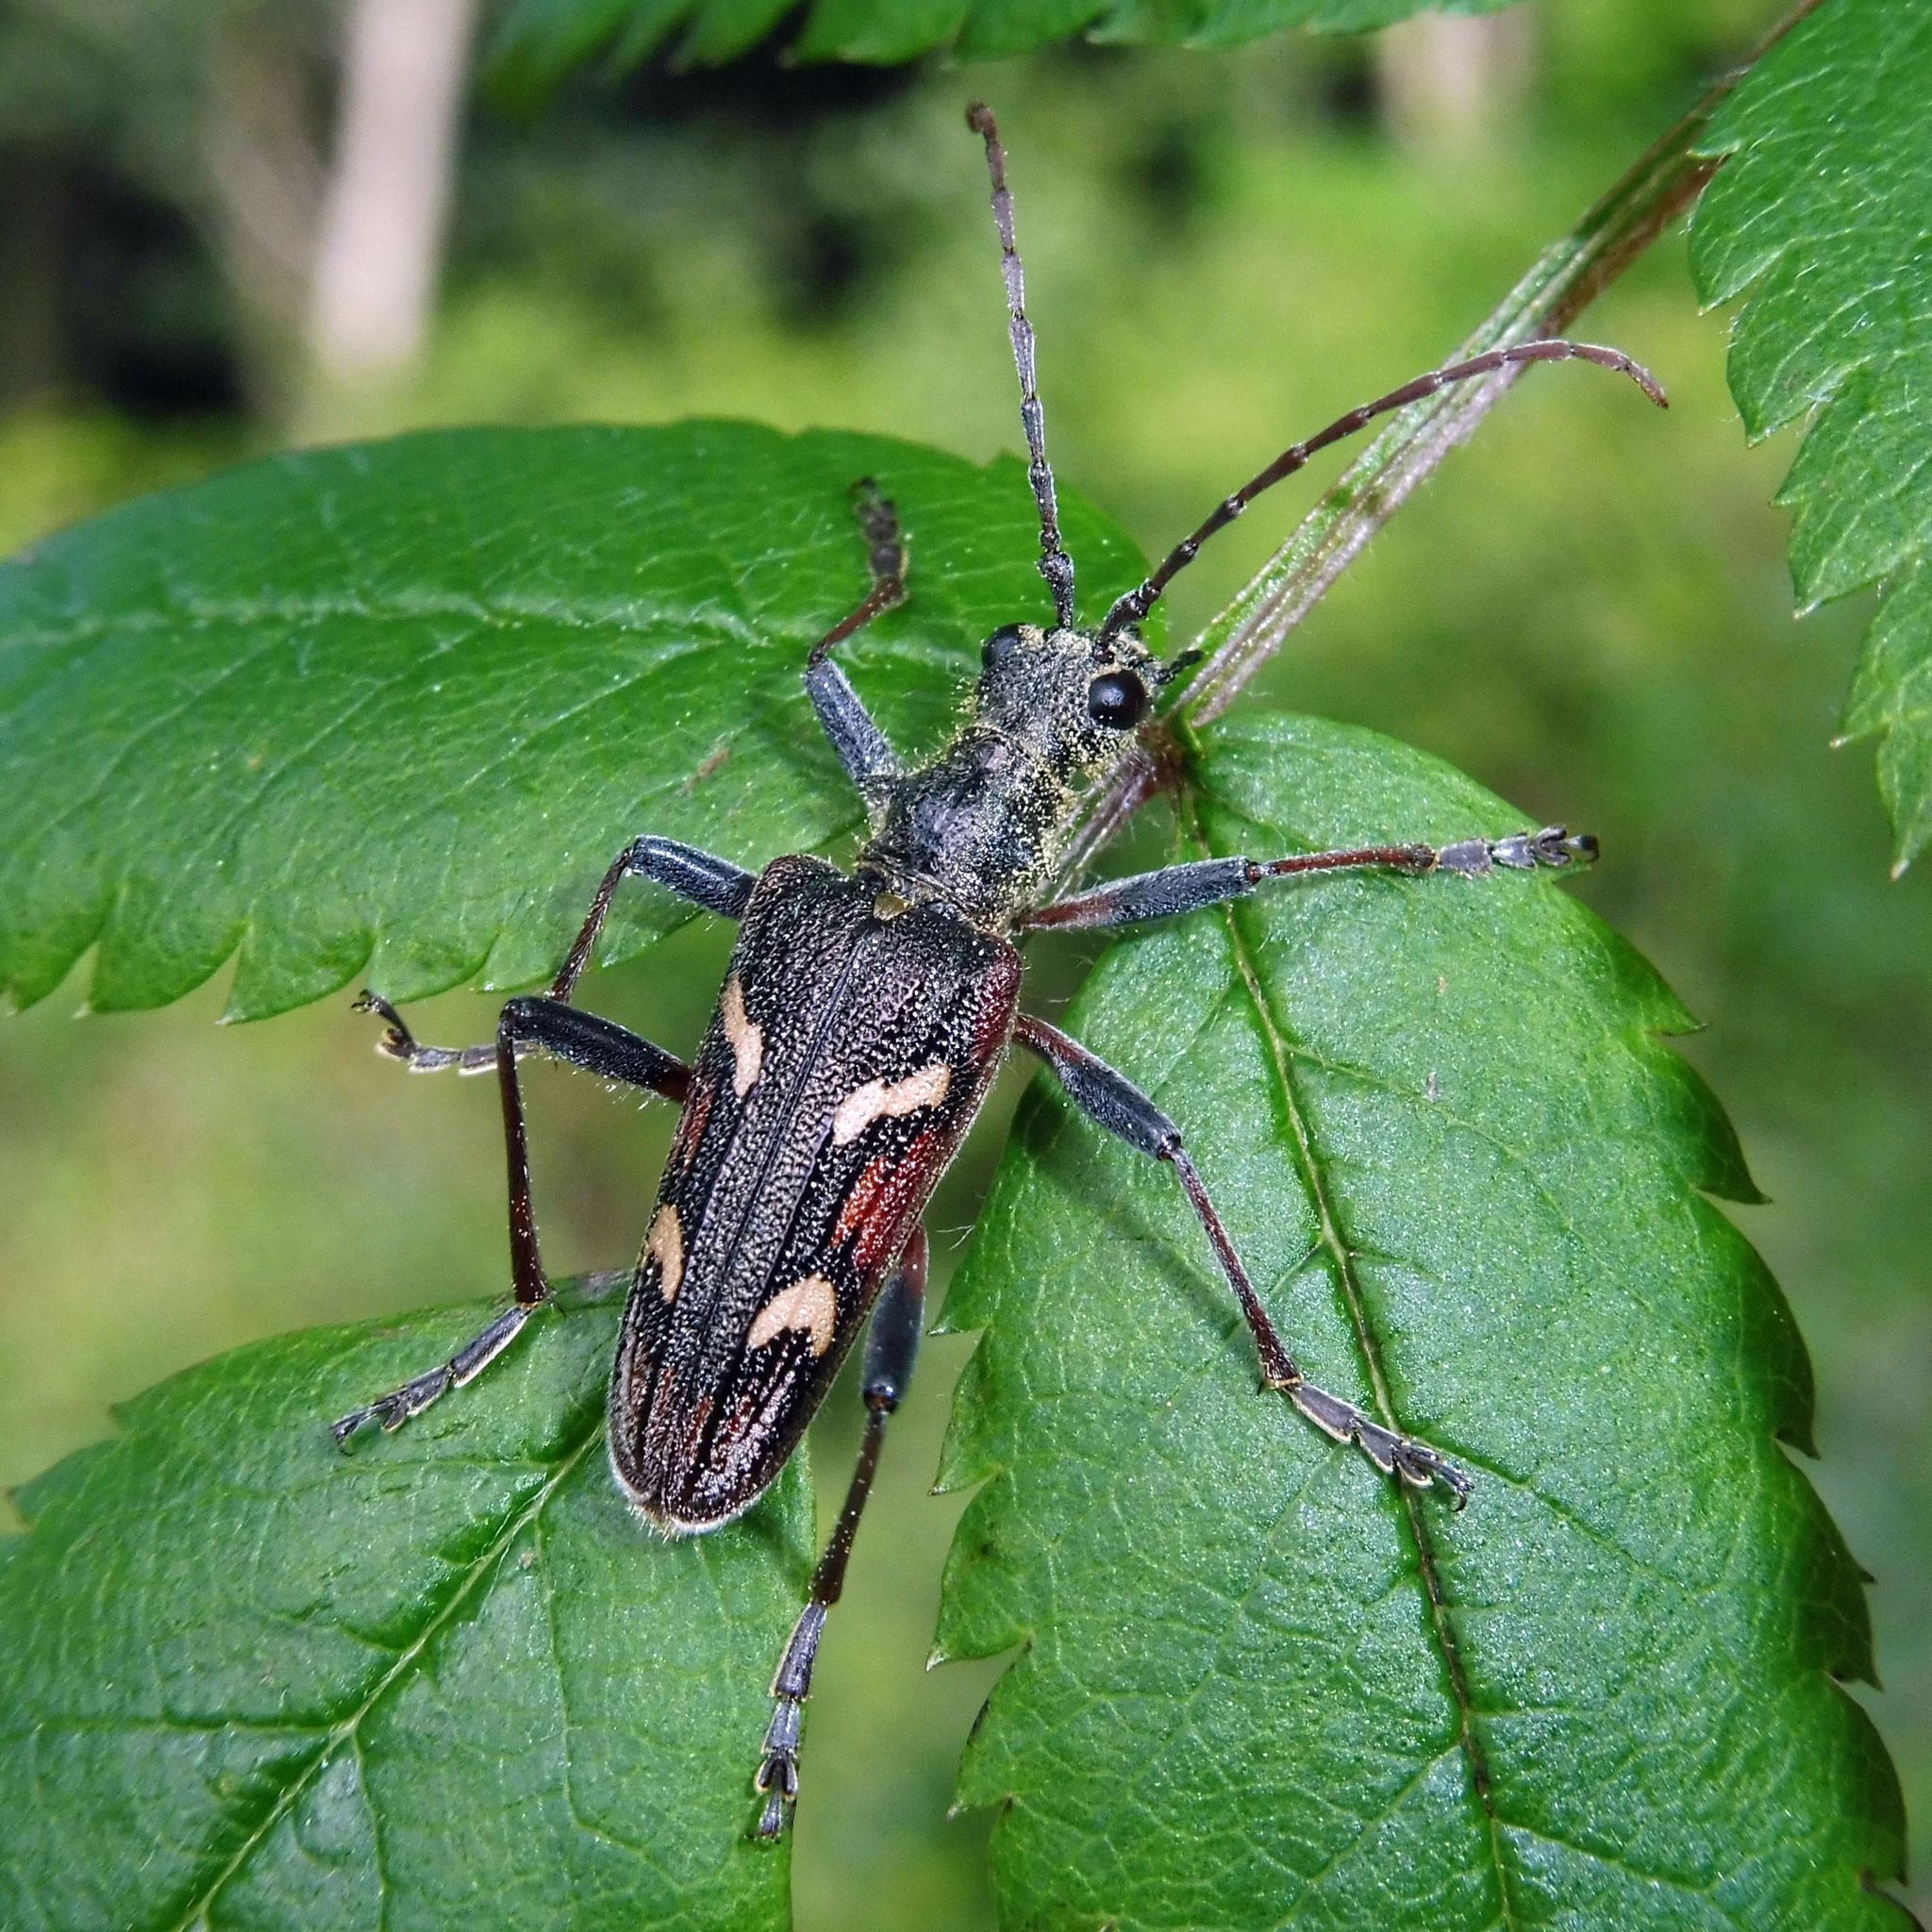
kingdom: Animalia
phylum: Arthropoda
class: Insecta
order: Coleoptera
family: Cerambycidae
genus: Rhagium
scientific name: Rhagium bifasciatum
